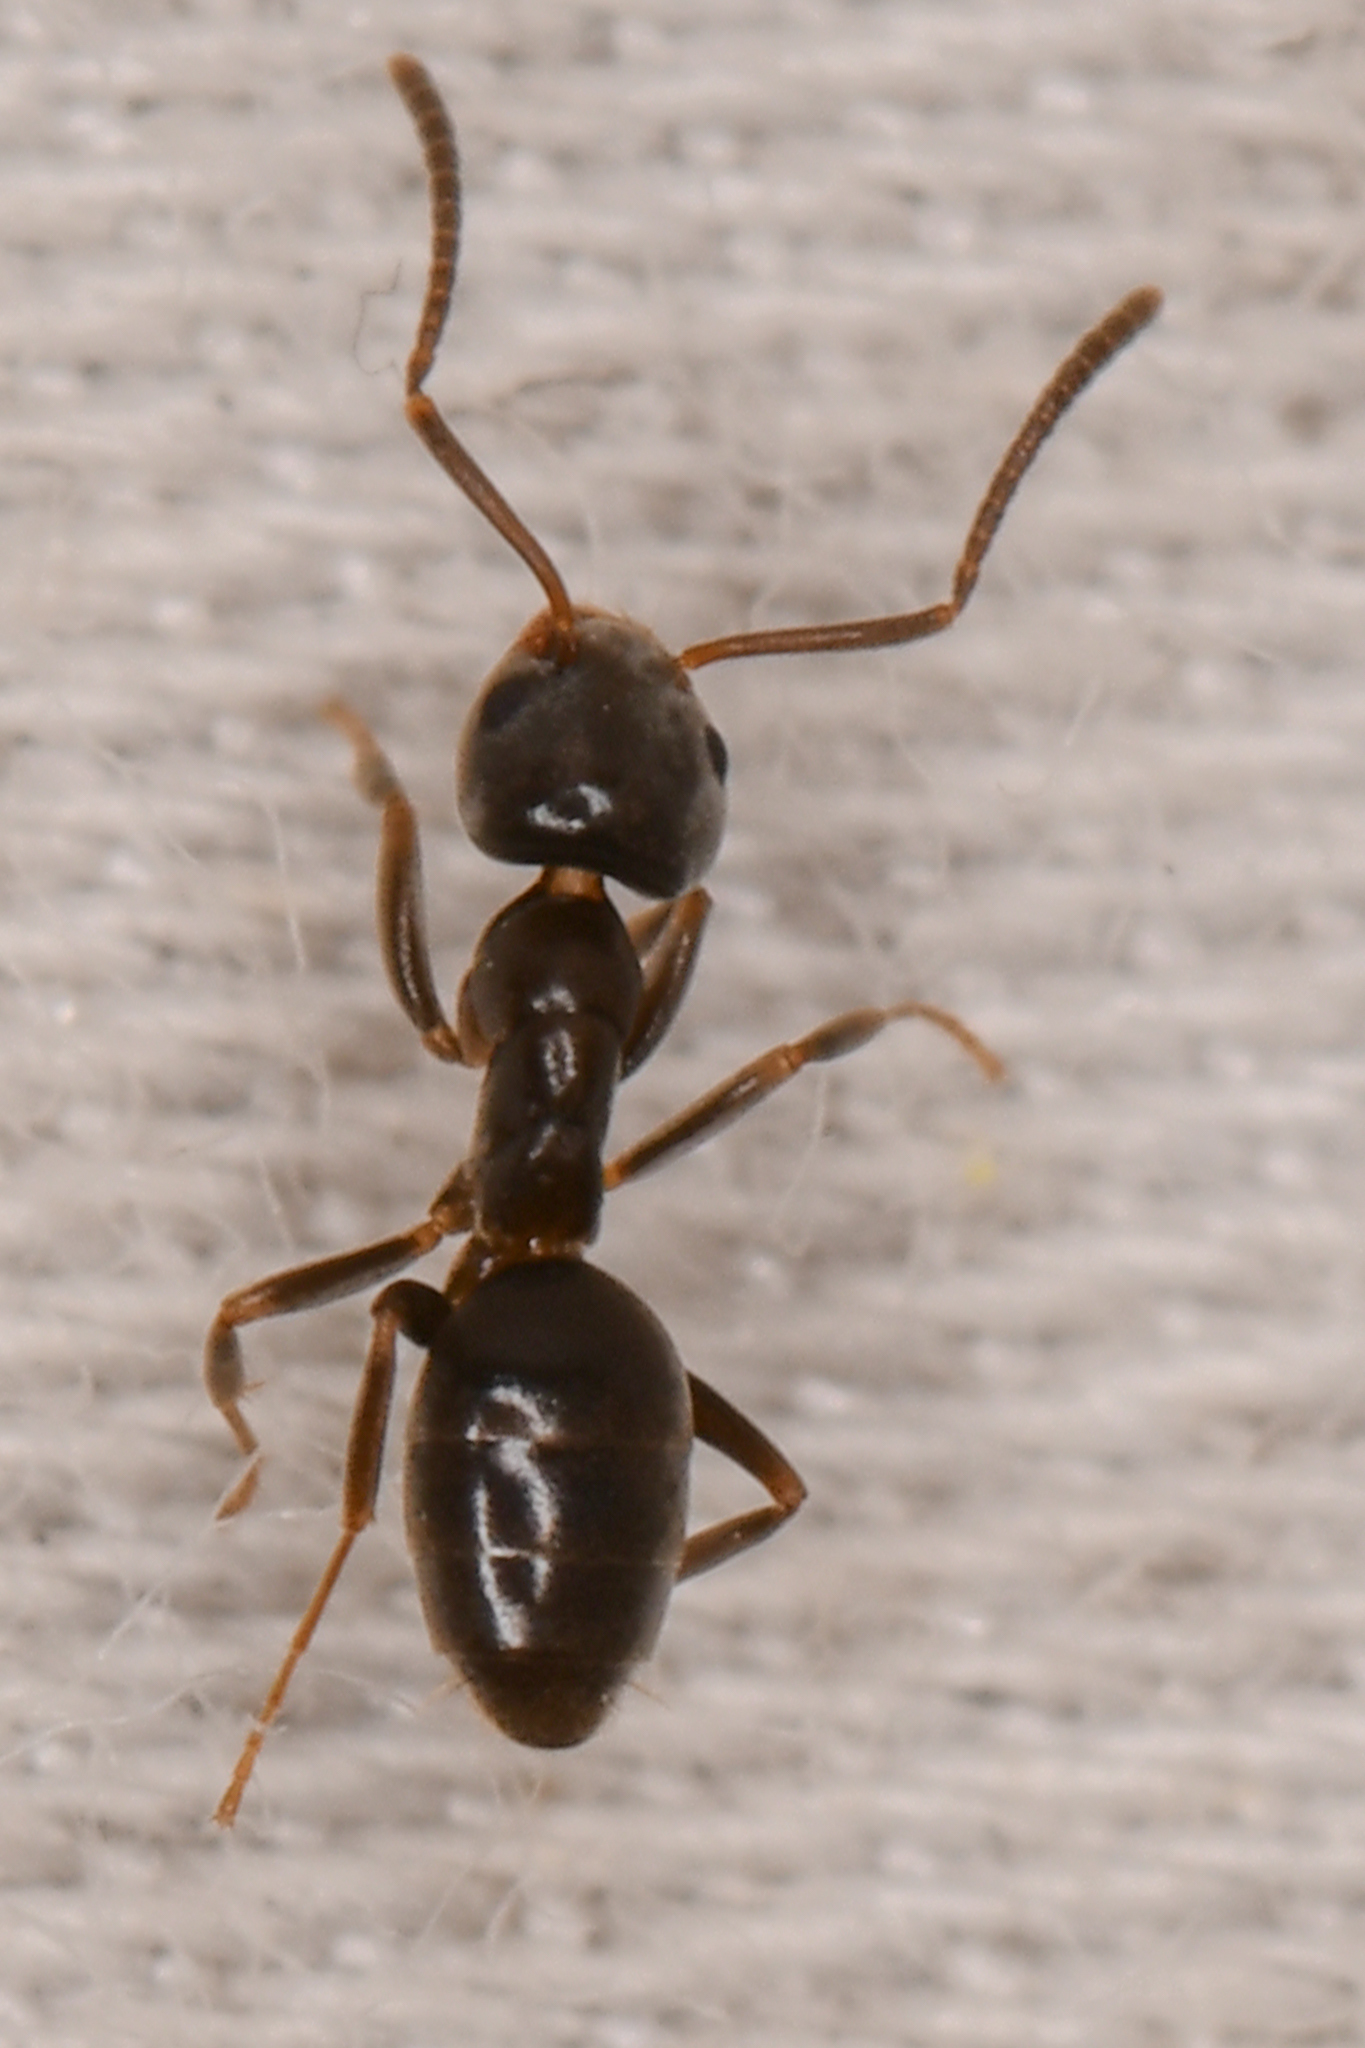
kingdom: Animalia
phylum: Arthropoda
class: Insecta
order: Hymenoptera
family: Formicidae
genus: Tapinoma
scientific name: Tapinoma sessile
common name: Odorous house ant
